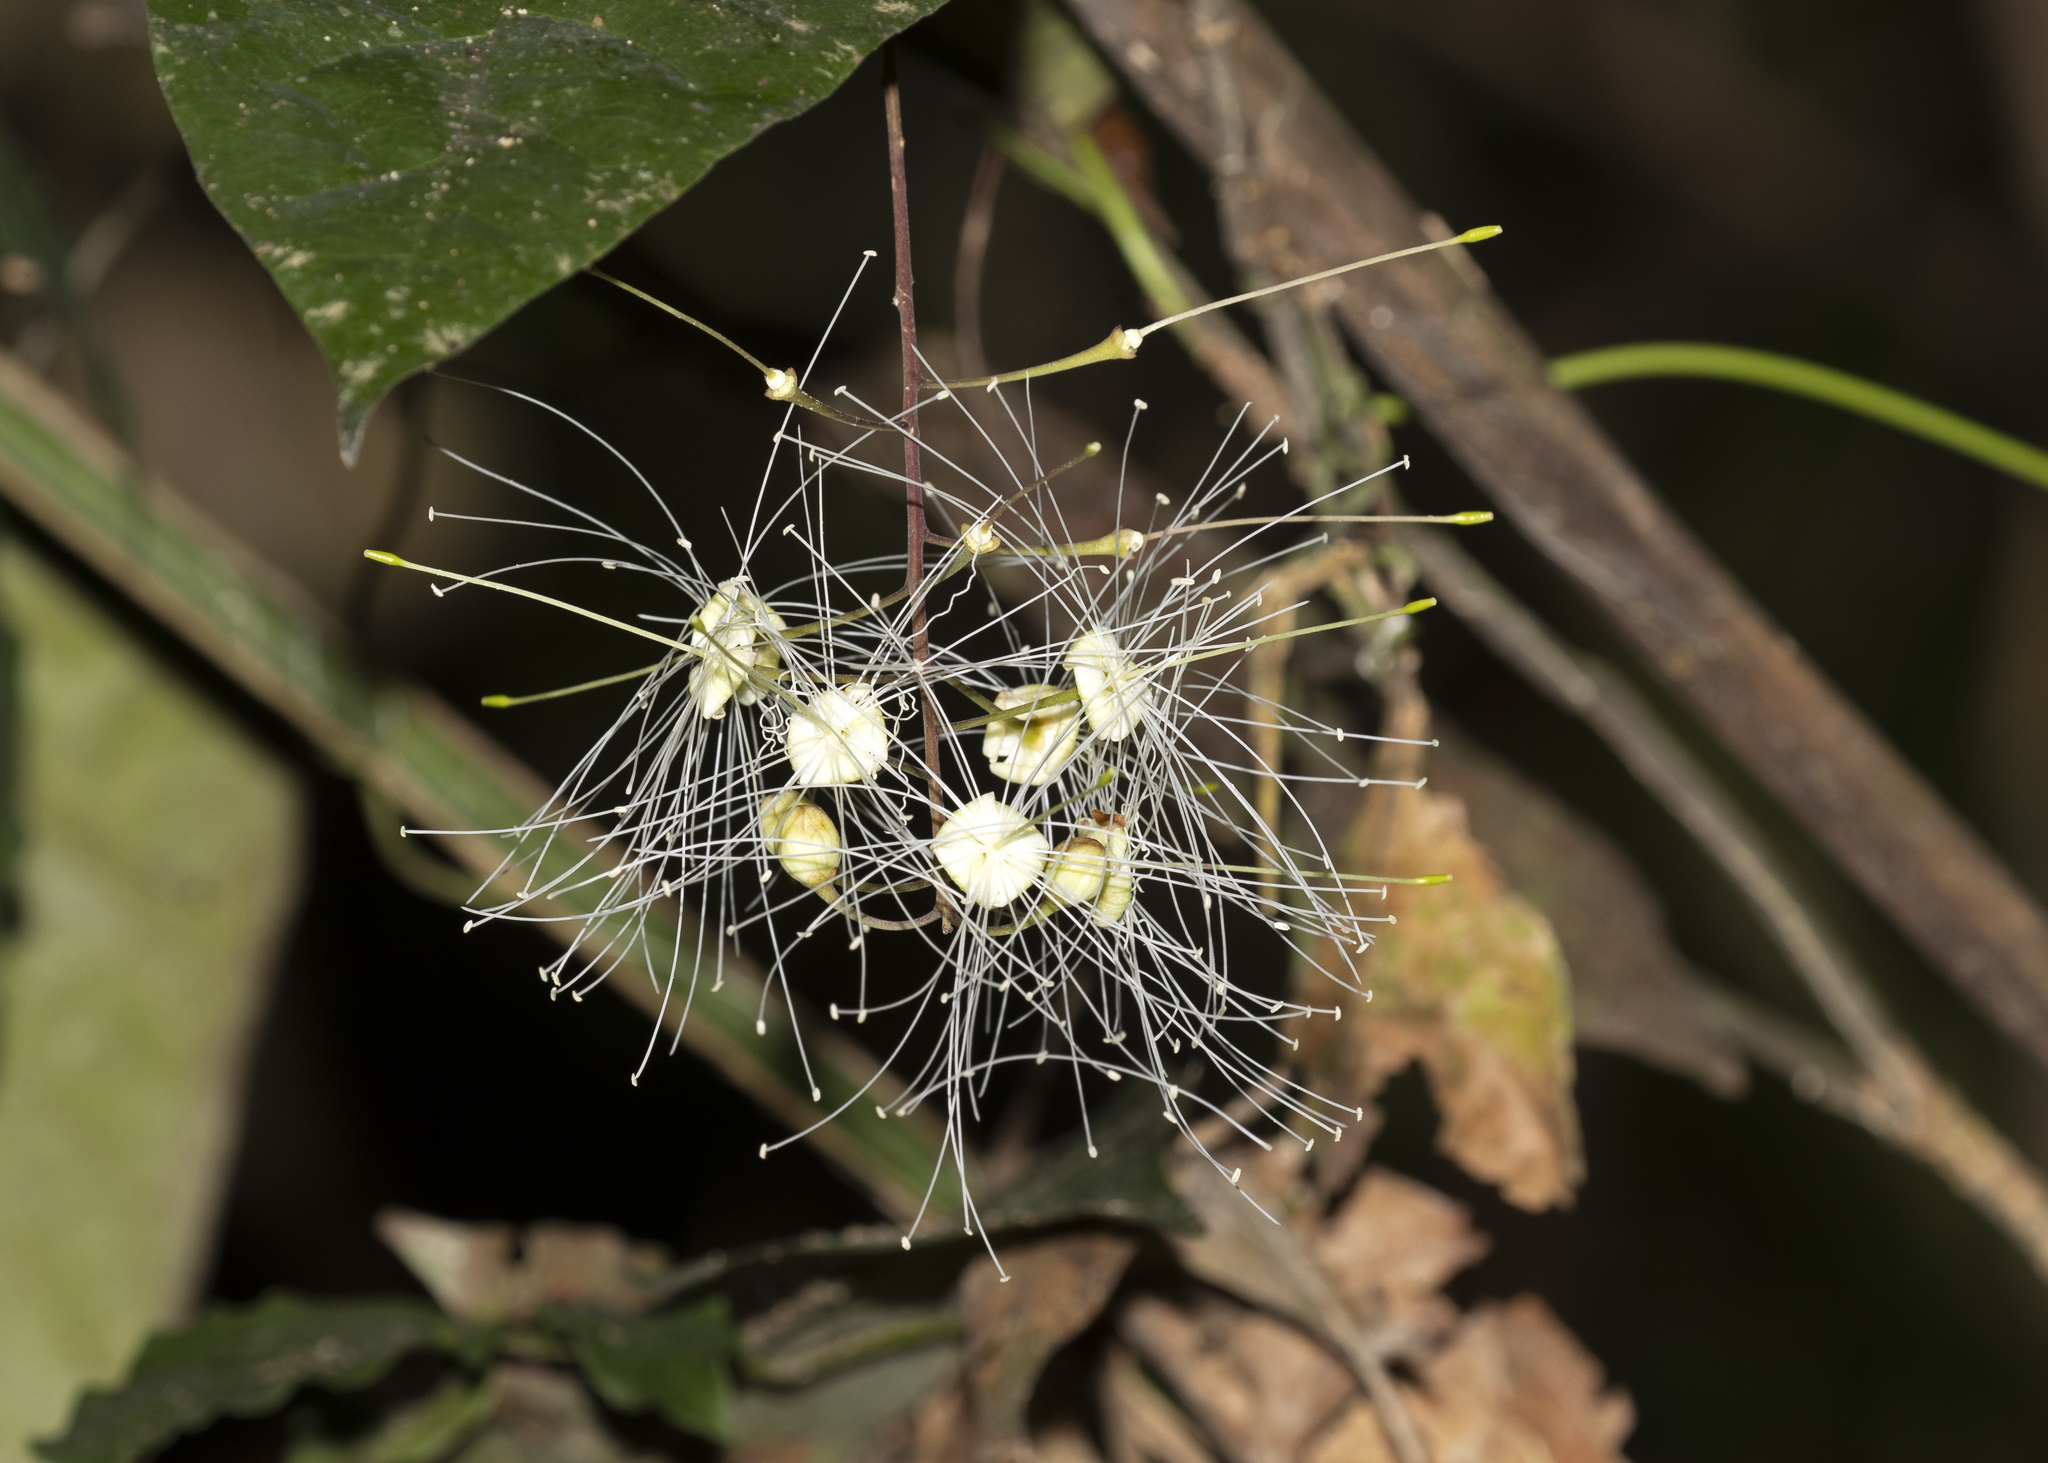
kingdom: Plantae
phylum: Tracheophyta
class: Magnoliopsida
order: Brassicales
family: Capparaceae
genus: Capparidastrum
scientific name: Capparidastrum solum
